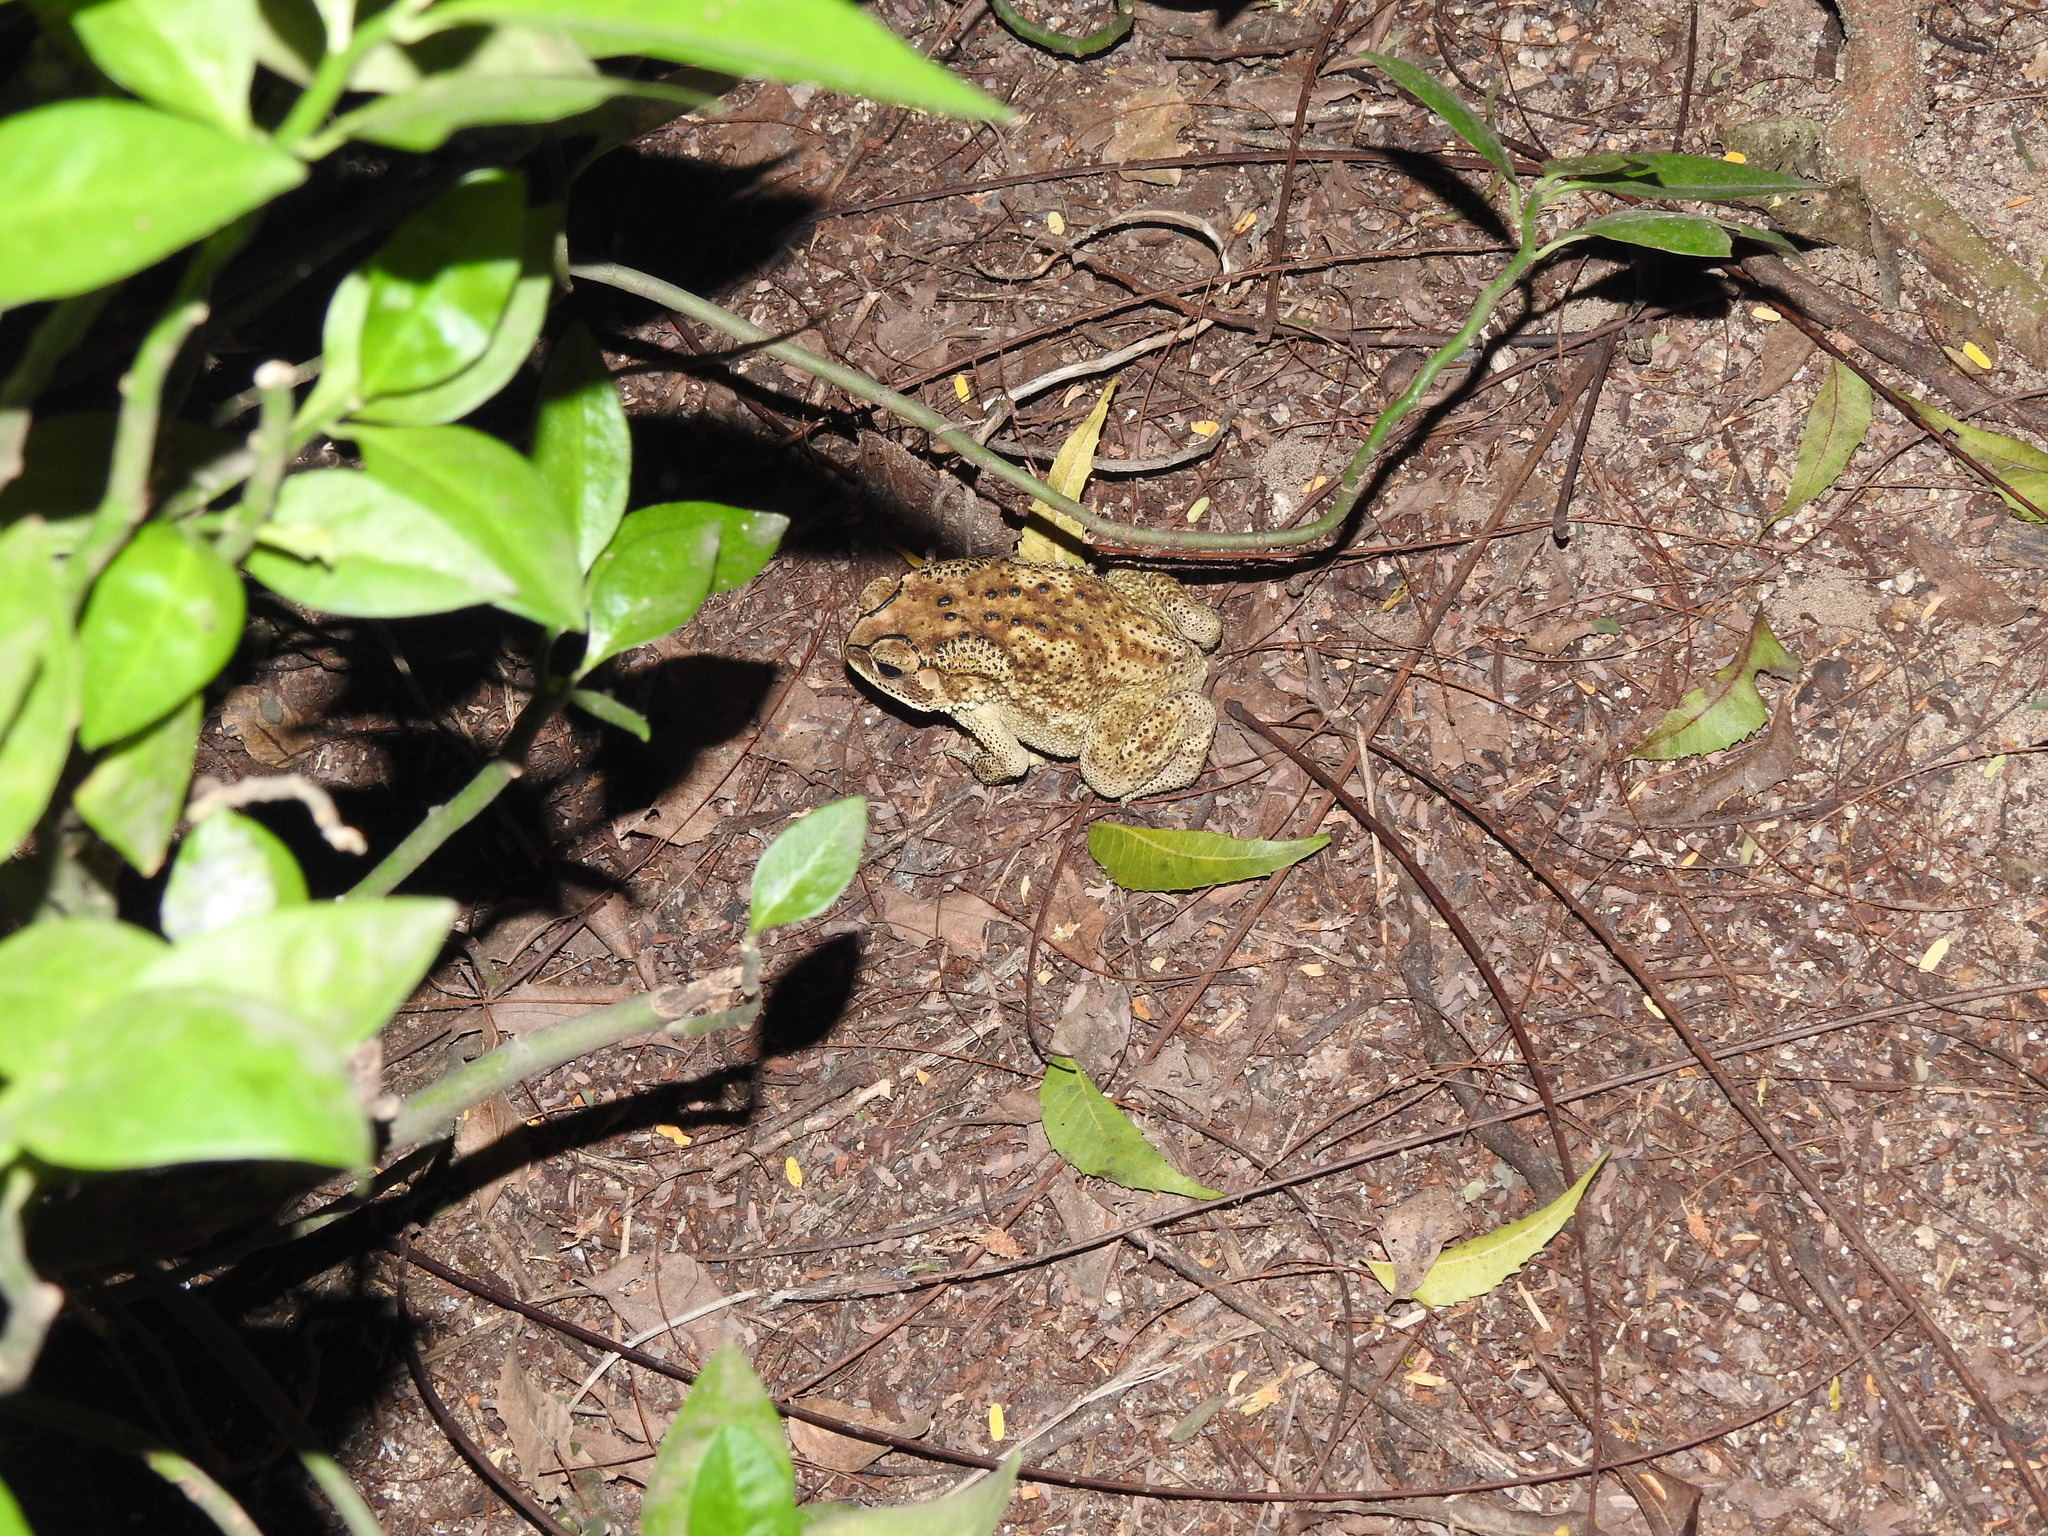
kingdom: Animalia
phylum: Chordata
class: Amphibia
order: Anura
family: Bufonidae
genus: Duttaphrynus
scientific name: Duttaphrynus melanostictus
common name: Common sunda toad
